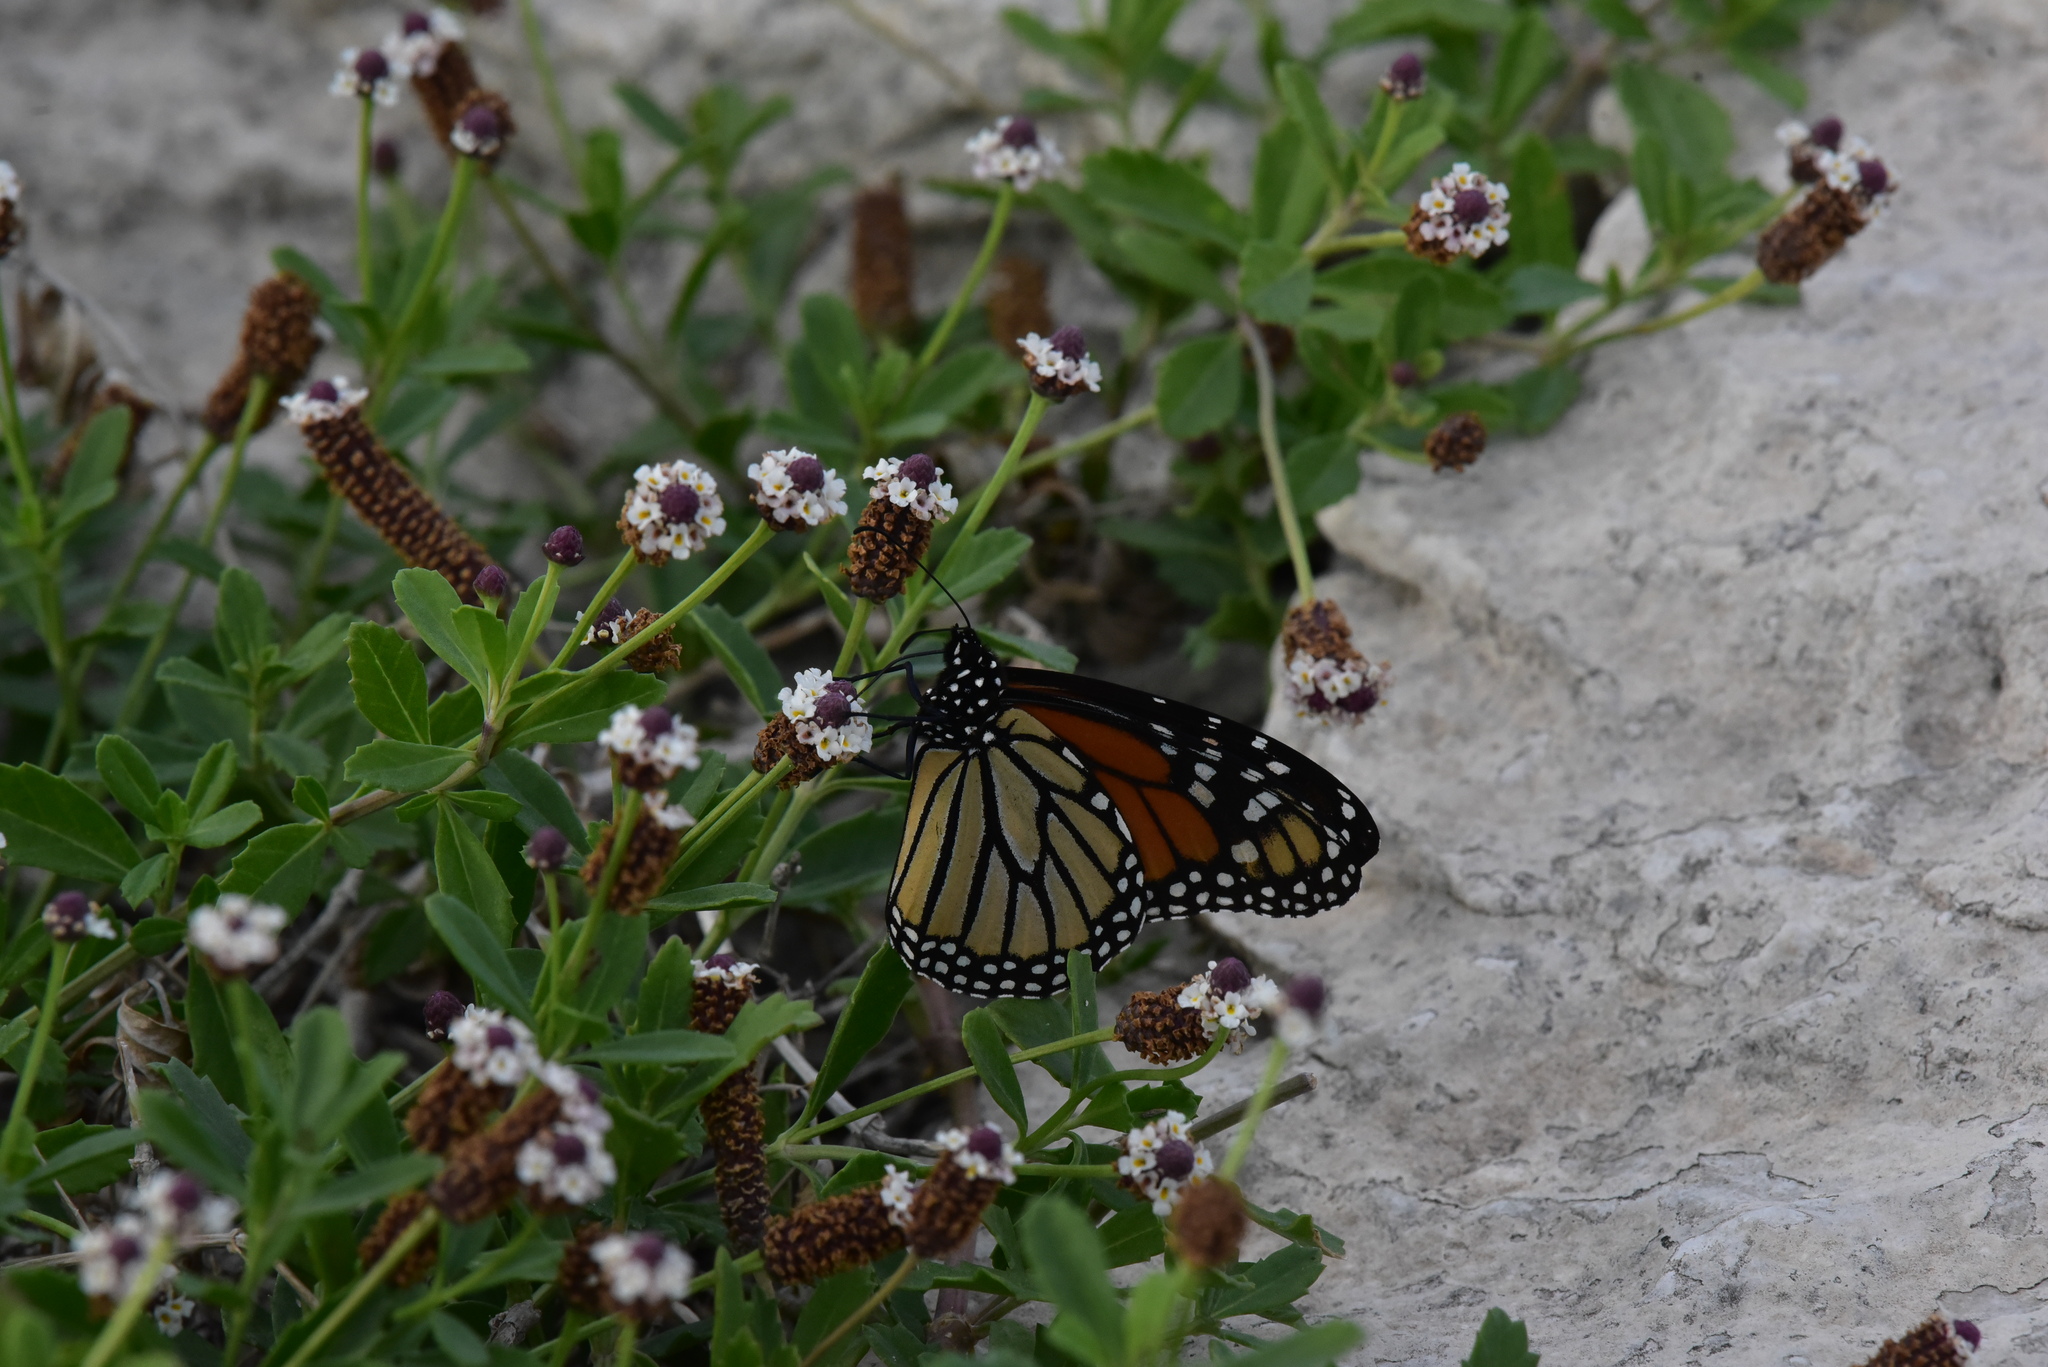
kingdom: Animalia
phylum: Arthropoda
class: Insecta
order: Lepidoptera
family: Nymphalidae
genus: Danaus
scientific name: Danaus plexippus
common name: Monarch
